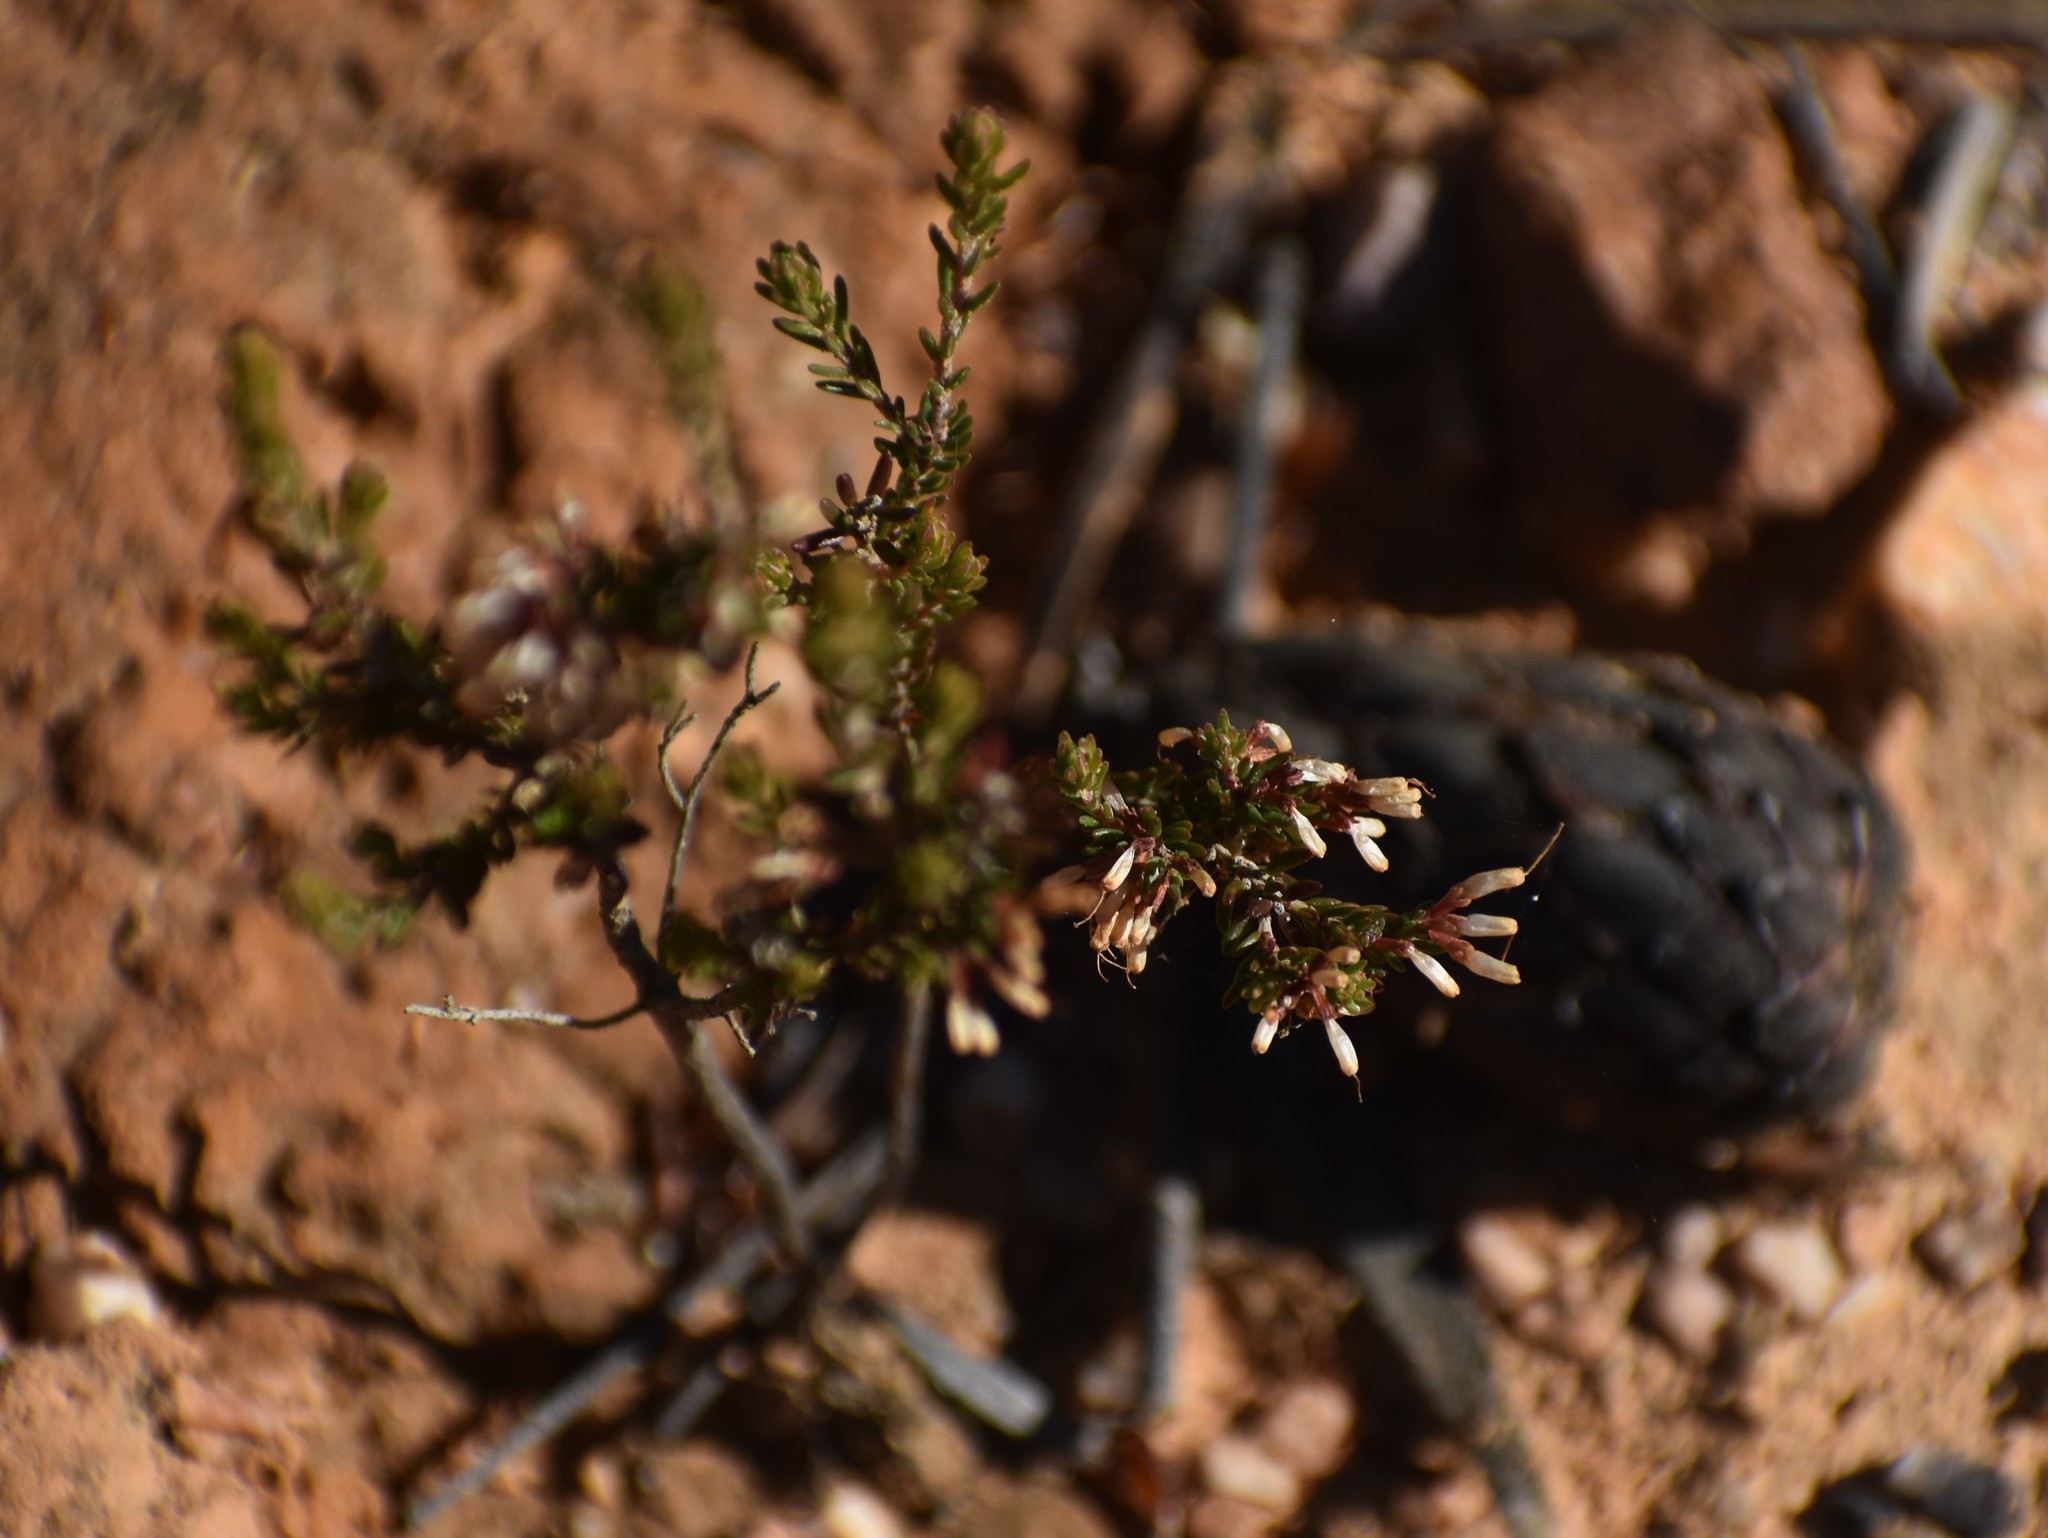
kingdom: Plantae
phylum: Tracheophyta
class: Magnoliopsida
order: Ericales
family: Ericaceae
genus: Erica
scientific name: Erica fuscescens
